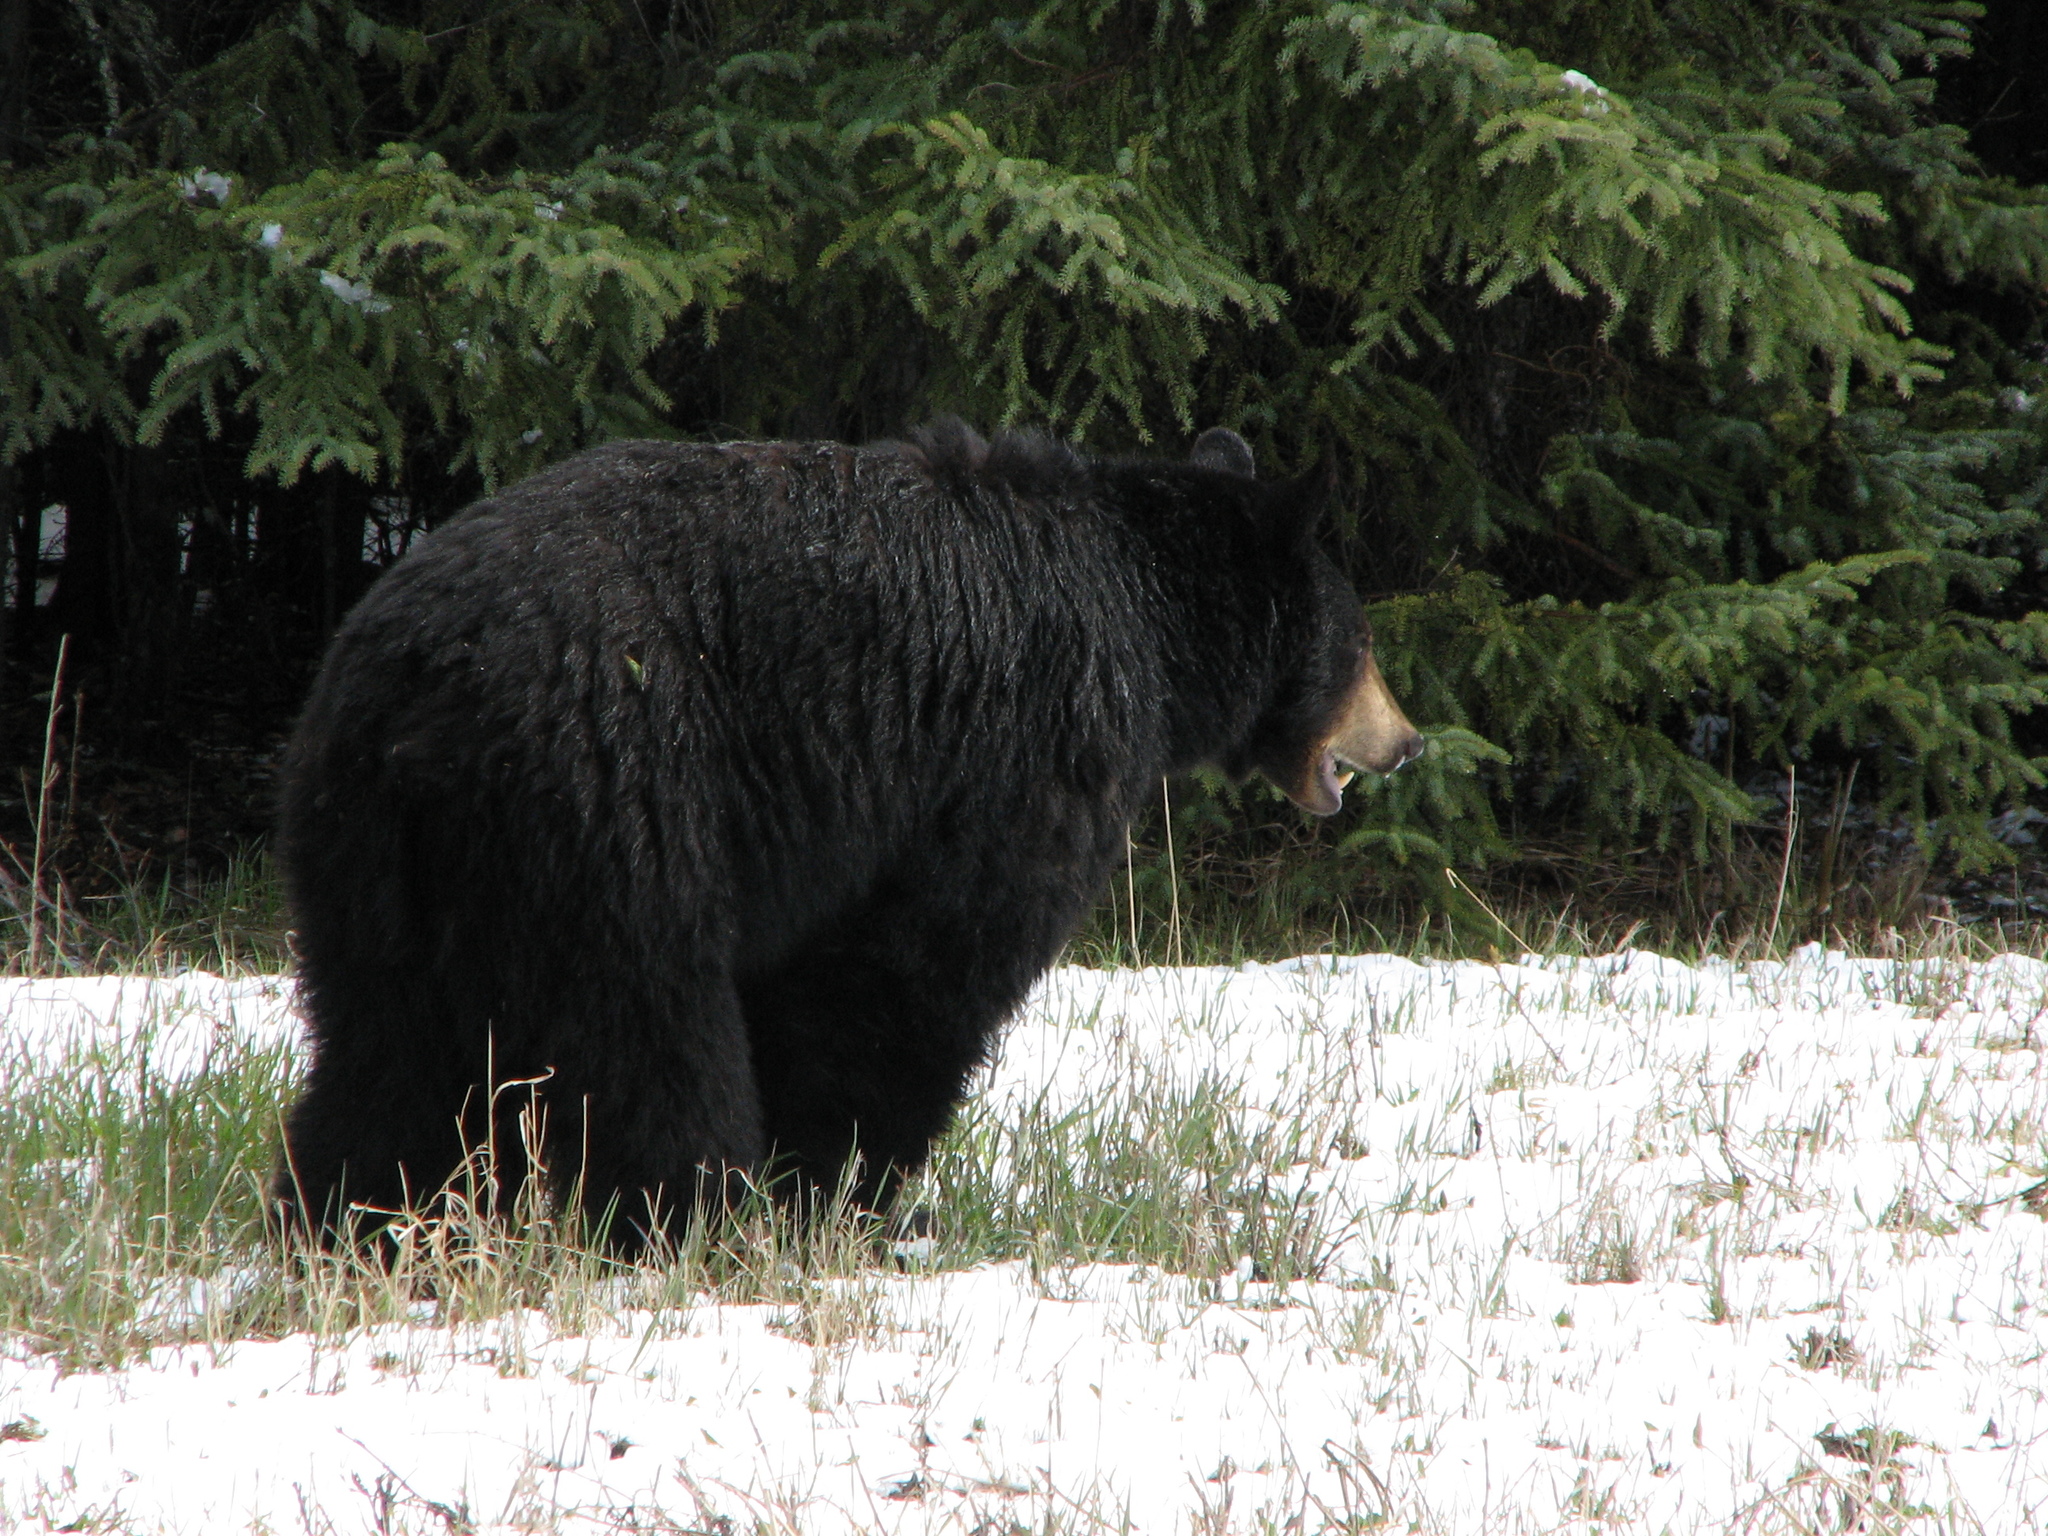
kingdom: Animalia
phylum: Chordata
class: Mammalia
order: Carnivora
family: Ursidae
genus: Ursus
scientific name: Ursus americanus
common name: American black bear
